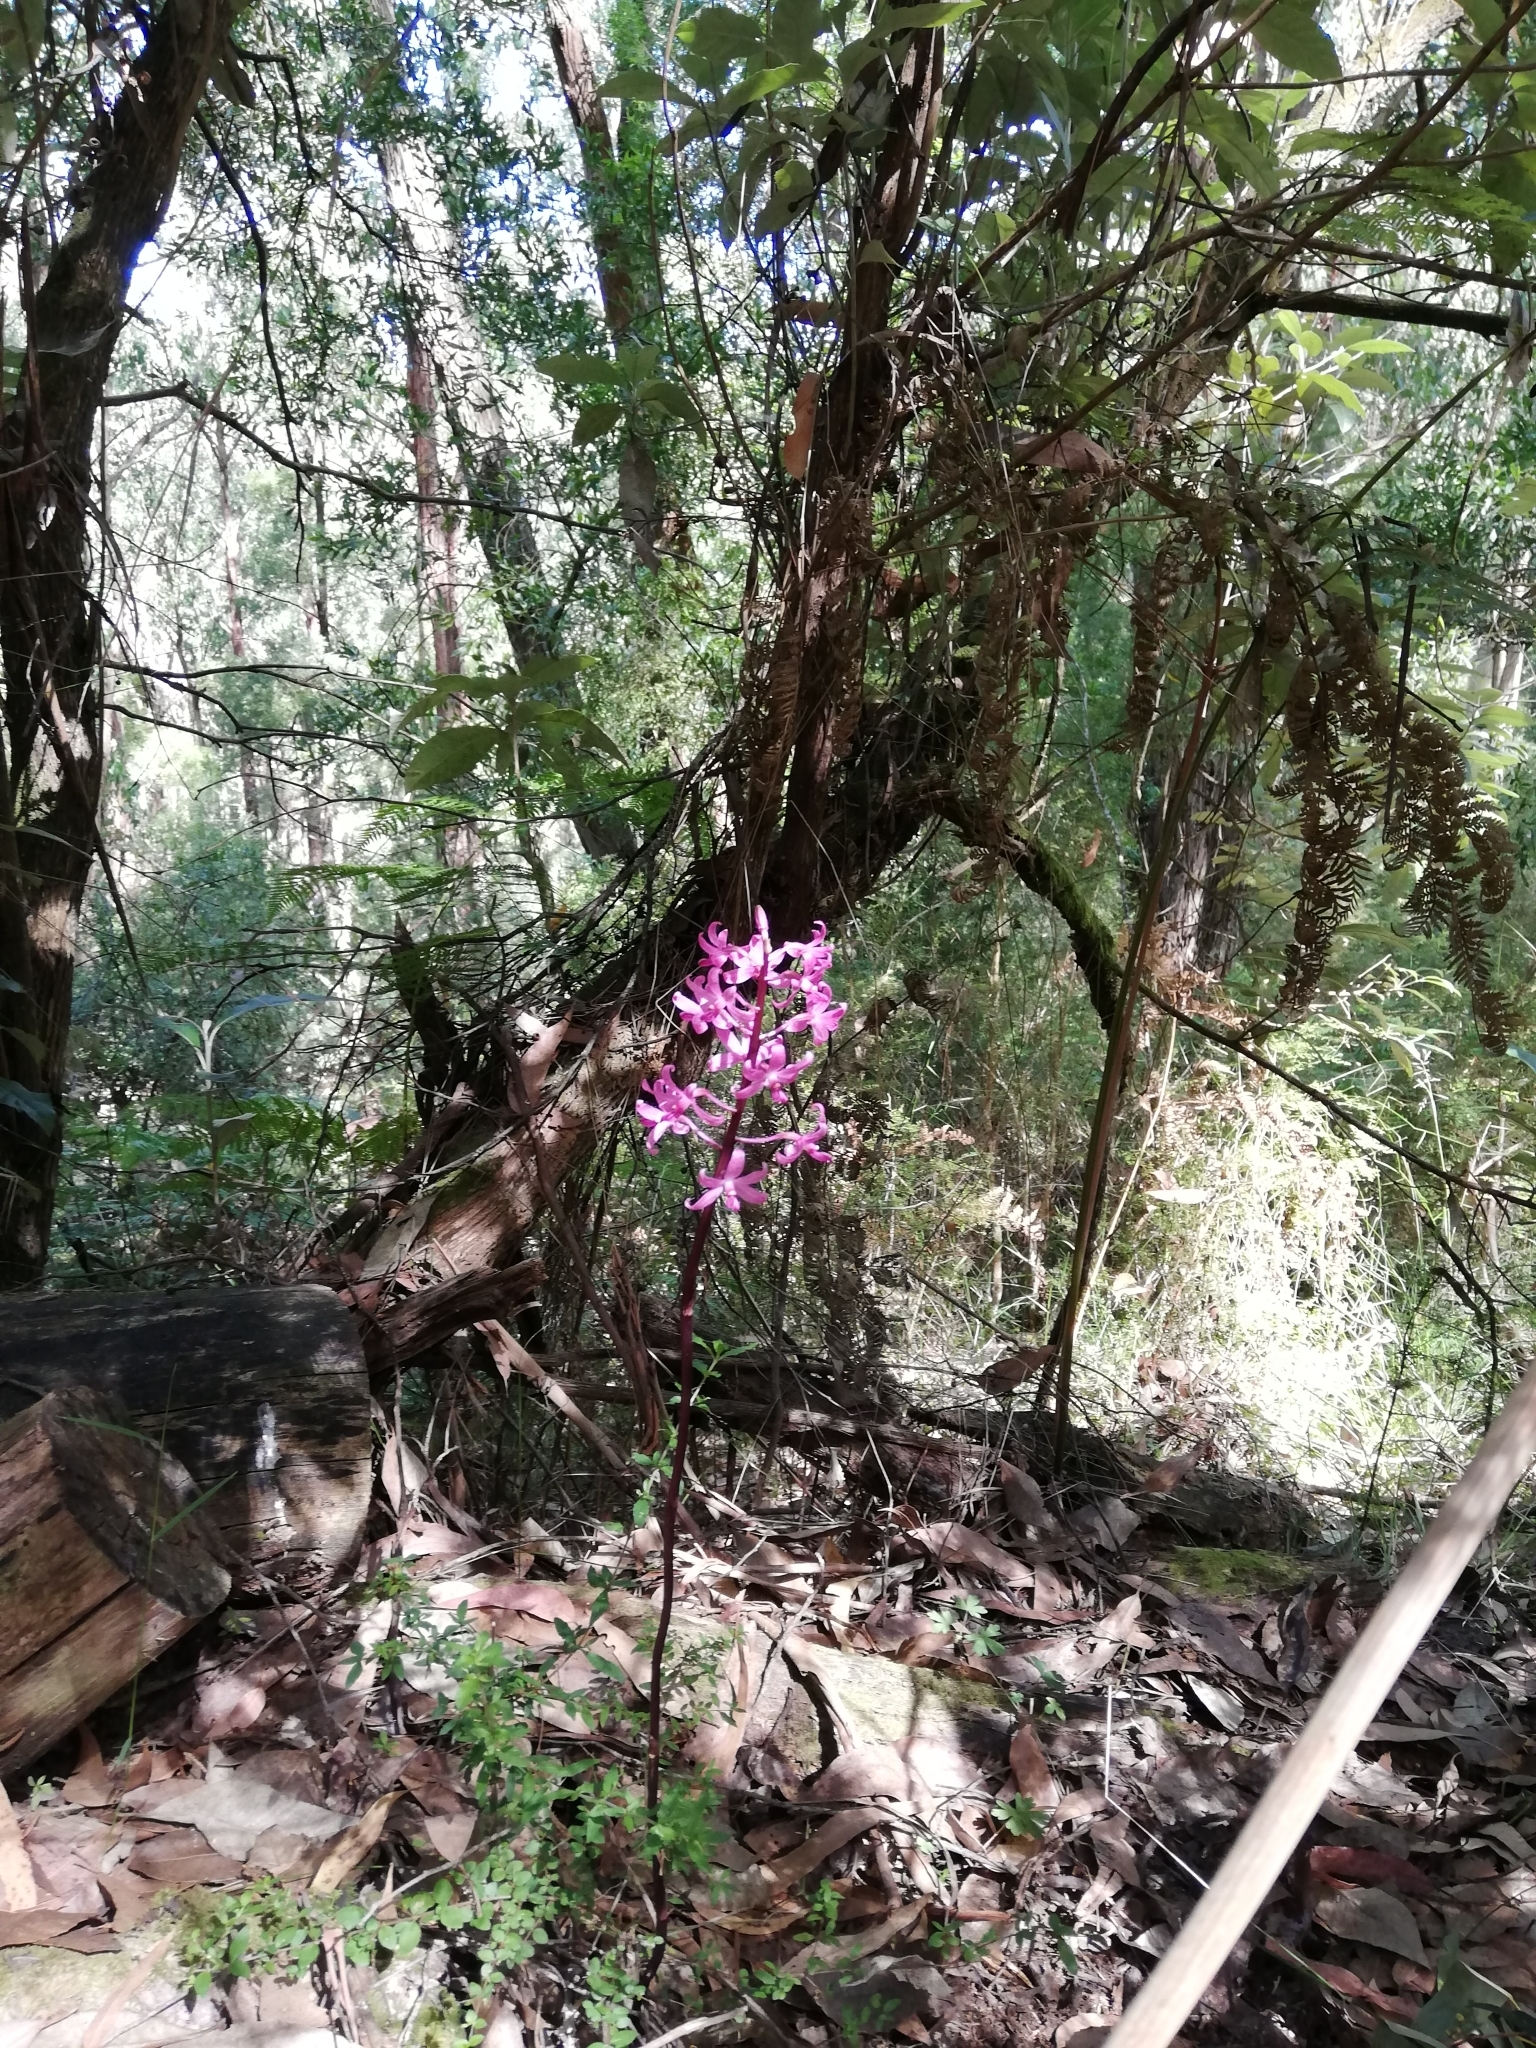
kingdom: Plantae
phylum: Tracheophyta
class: Liliopsida
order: Asparagales
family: Orchidaceae
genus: Dipodium
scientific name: Dipodium roseum
